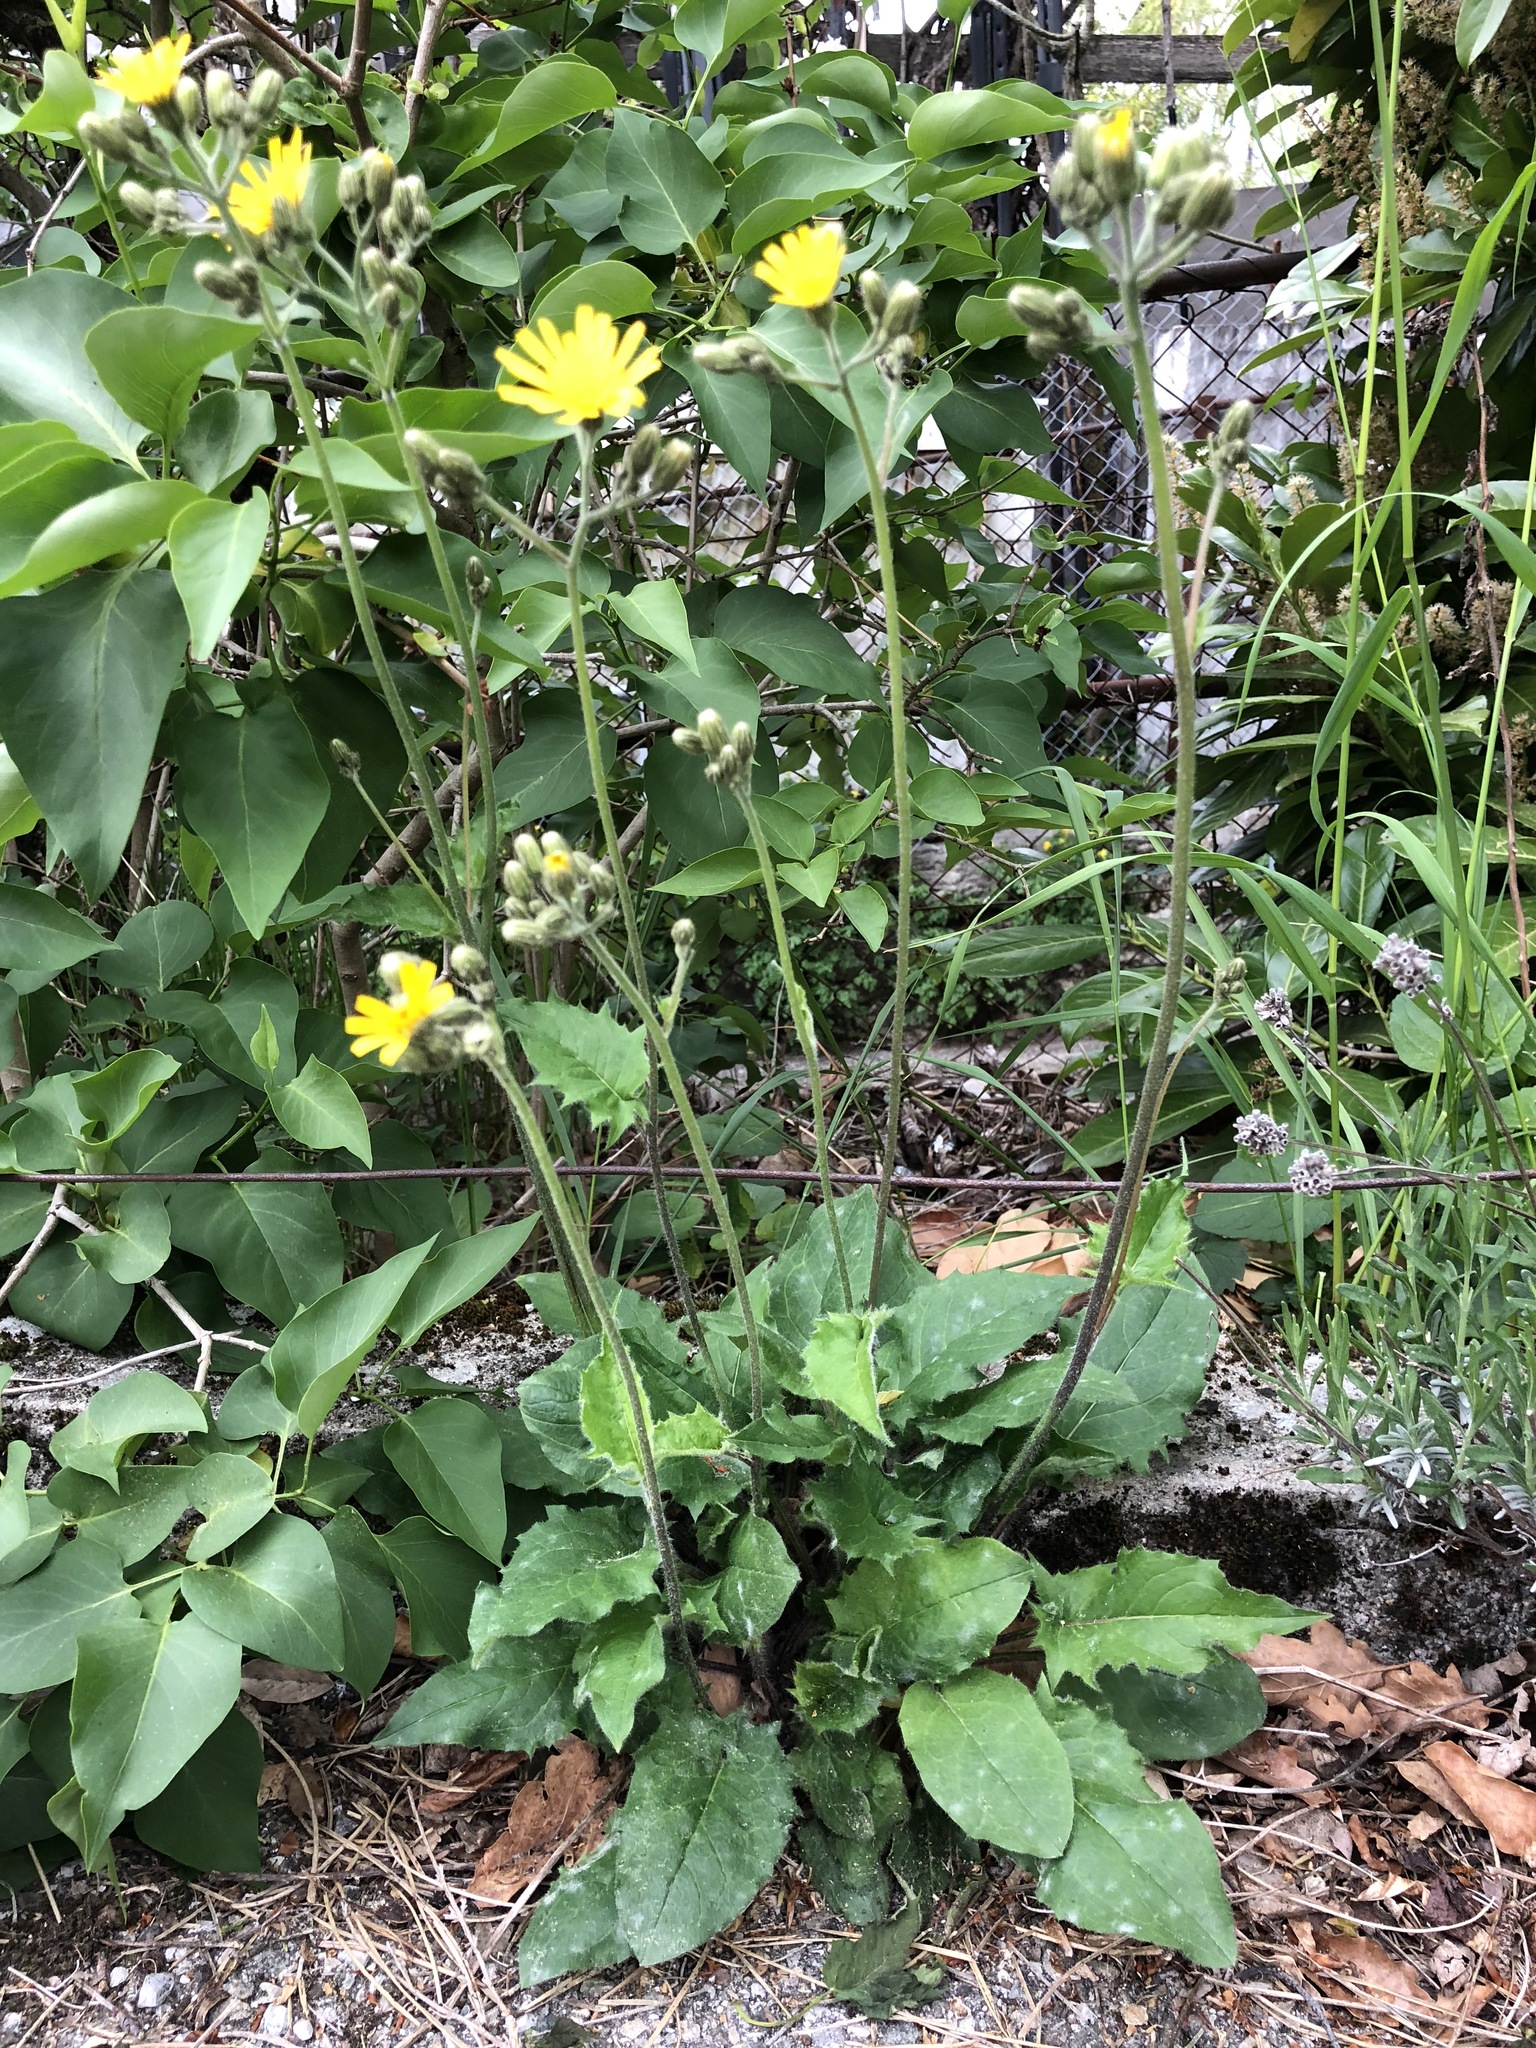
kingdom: Plantae
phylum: Tracheophyta
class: Magnoliopsida
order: Asterales
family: Asteraceae
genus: Hieracium
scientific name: Hieracium murorum
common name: Wall hawkweed
